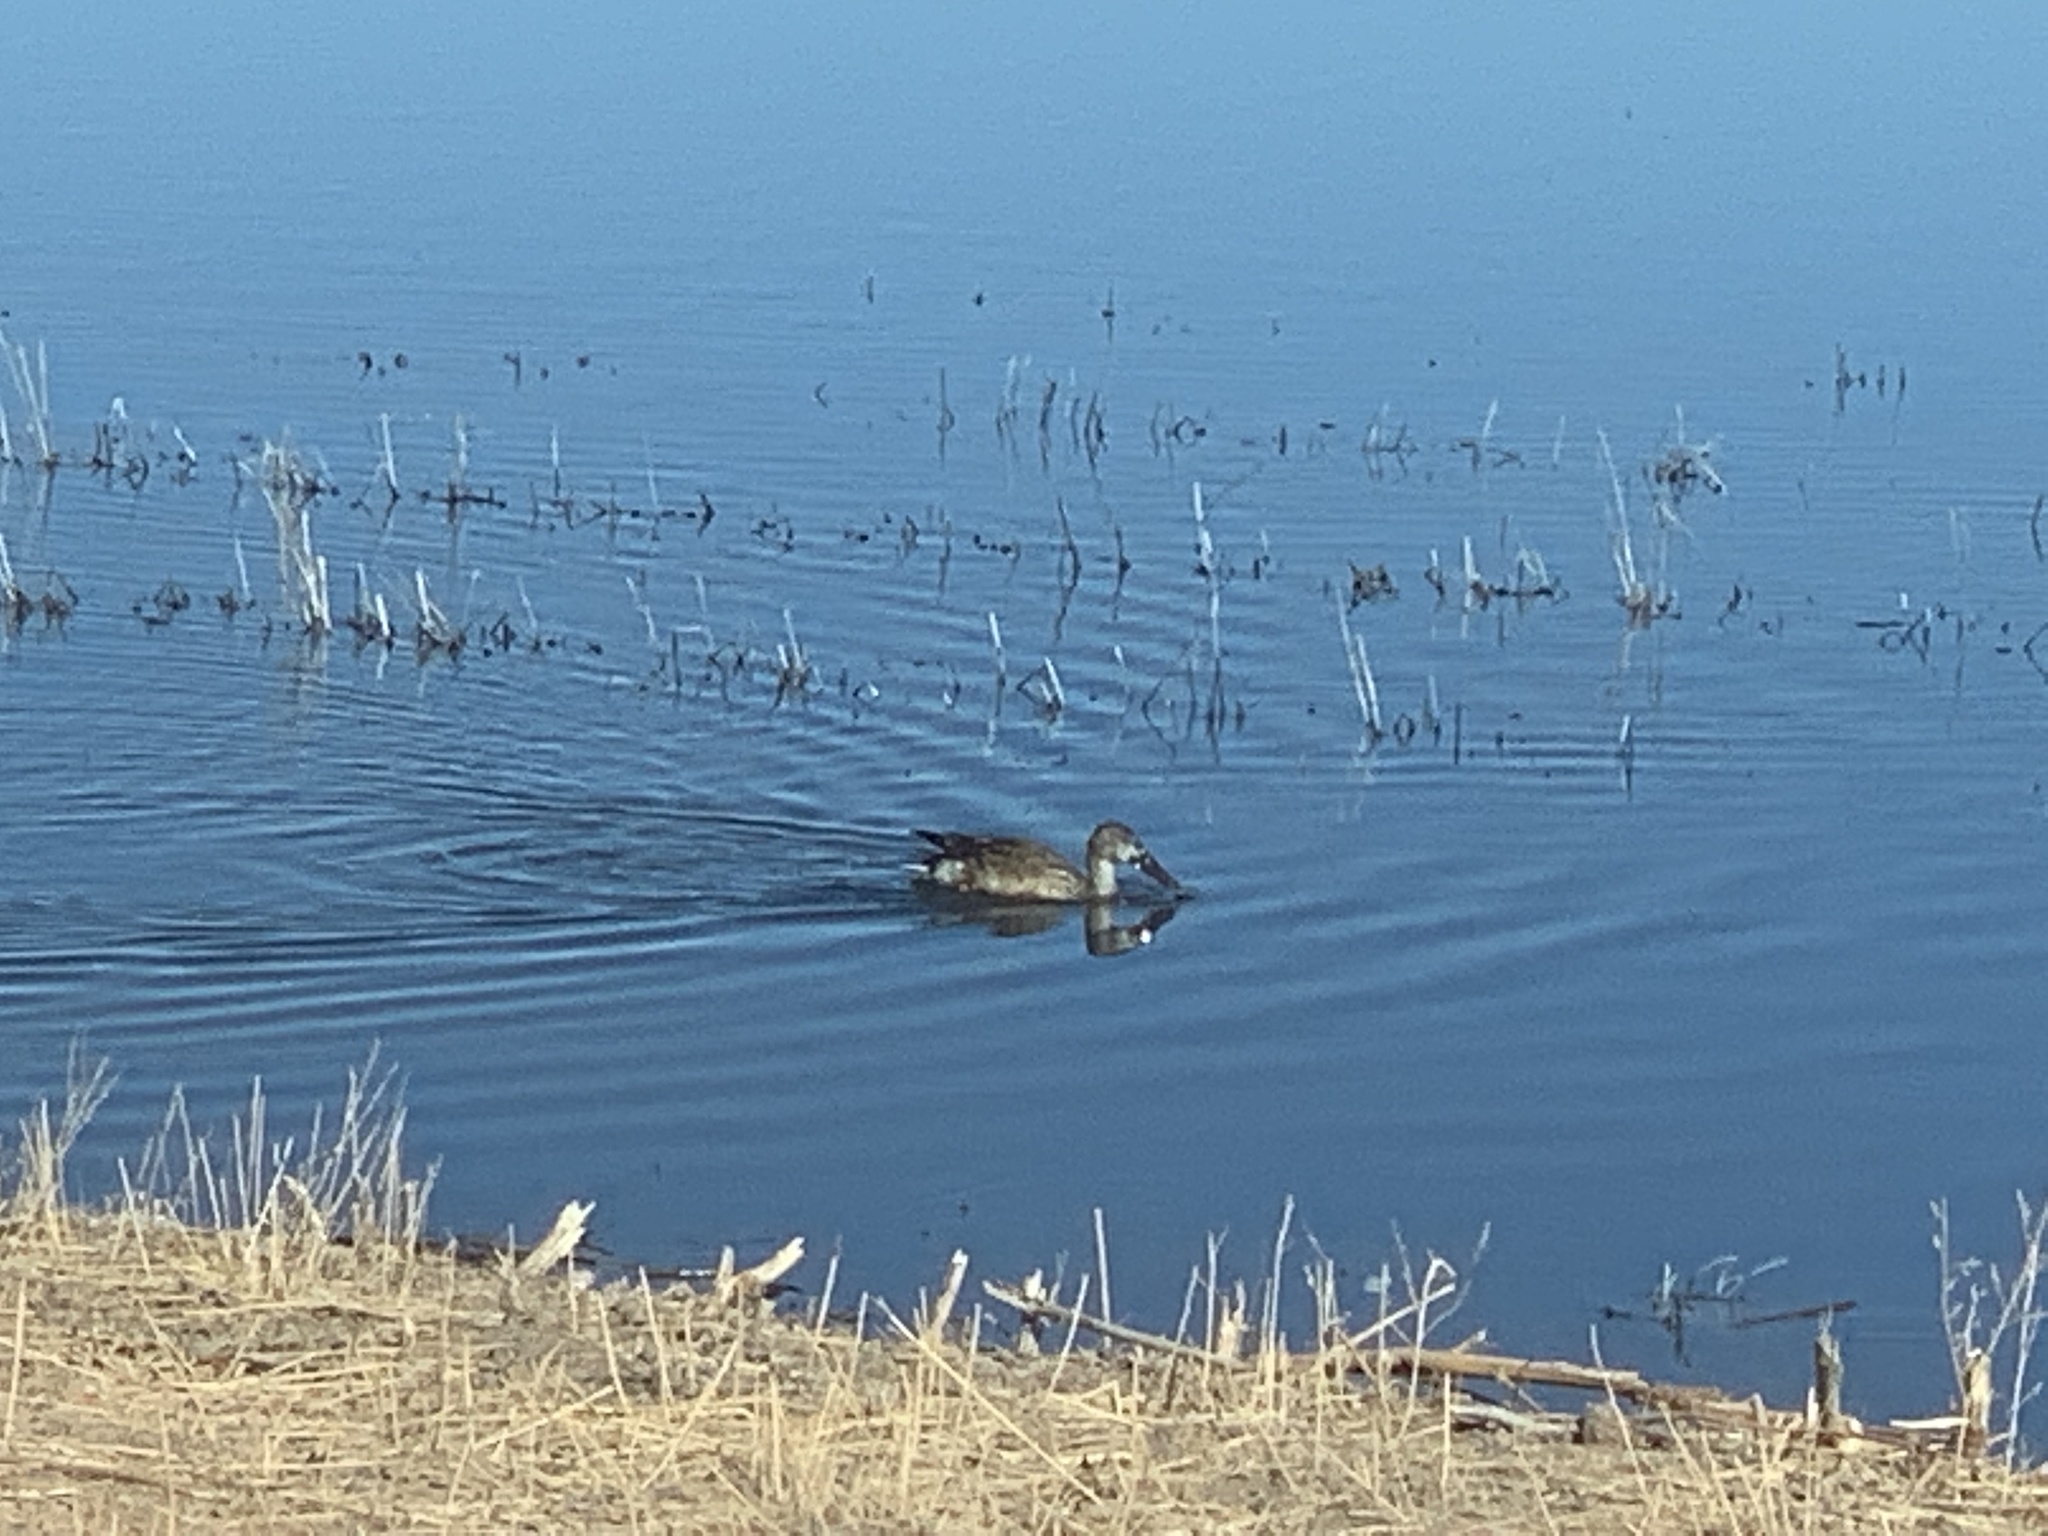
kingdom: Animalia
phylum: Chordata
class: Aves
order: Anseriformes
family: Anatidae
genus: Spatula
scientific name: Spatula clypeata
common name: Northern shoveler
